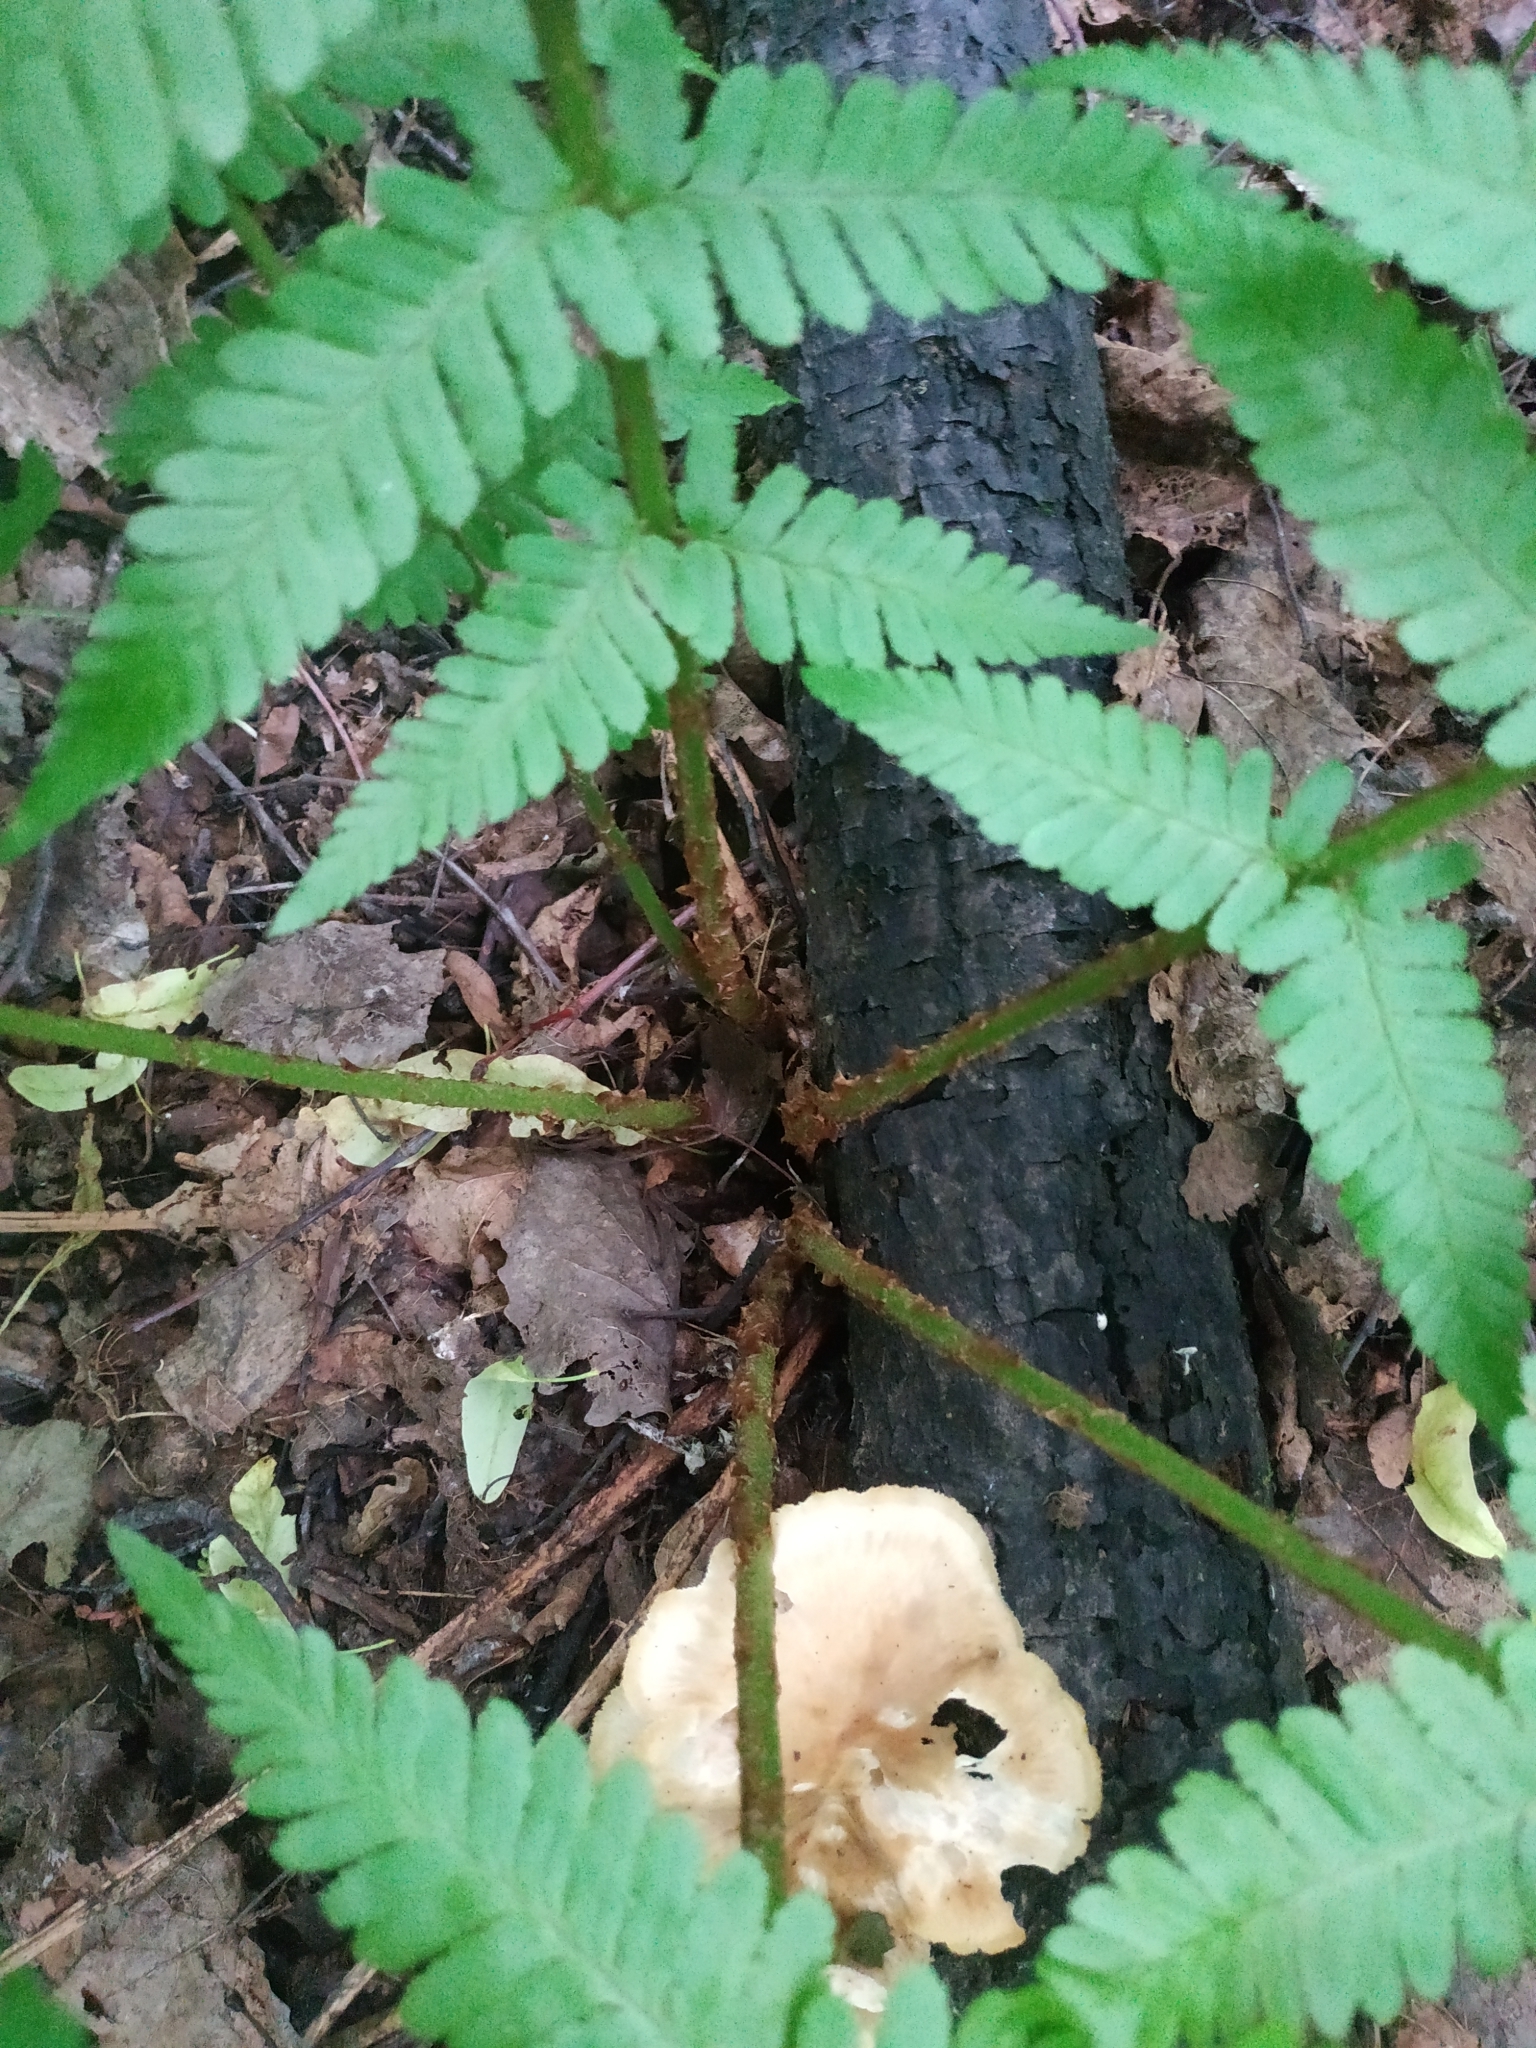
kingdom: Plantae
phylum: Tracheophyta
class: Polypodiopsida
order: Polypodiales
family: Dryopteridaceae
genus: Dryopteris
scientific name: Dryopteris filix-mas
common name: Male fern
